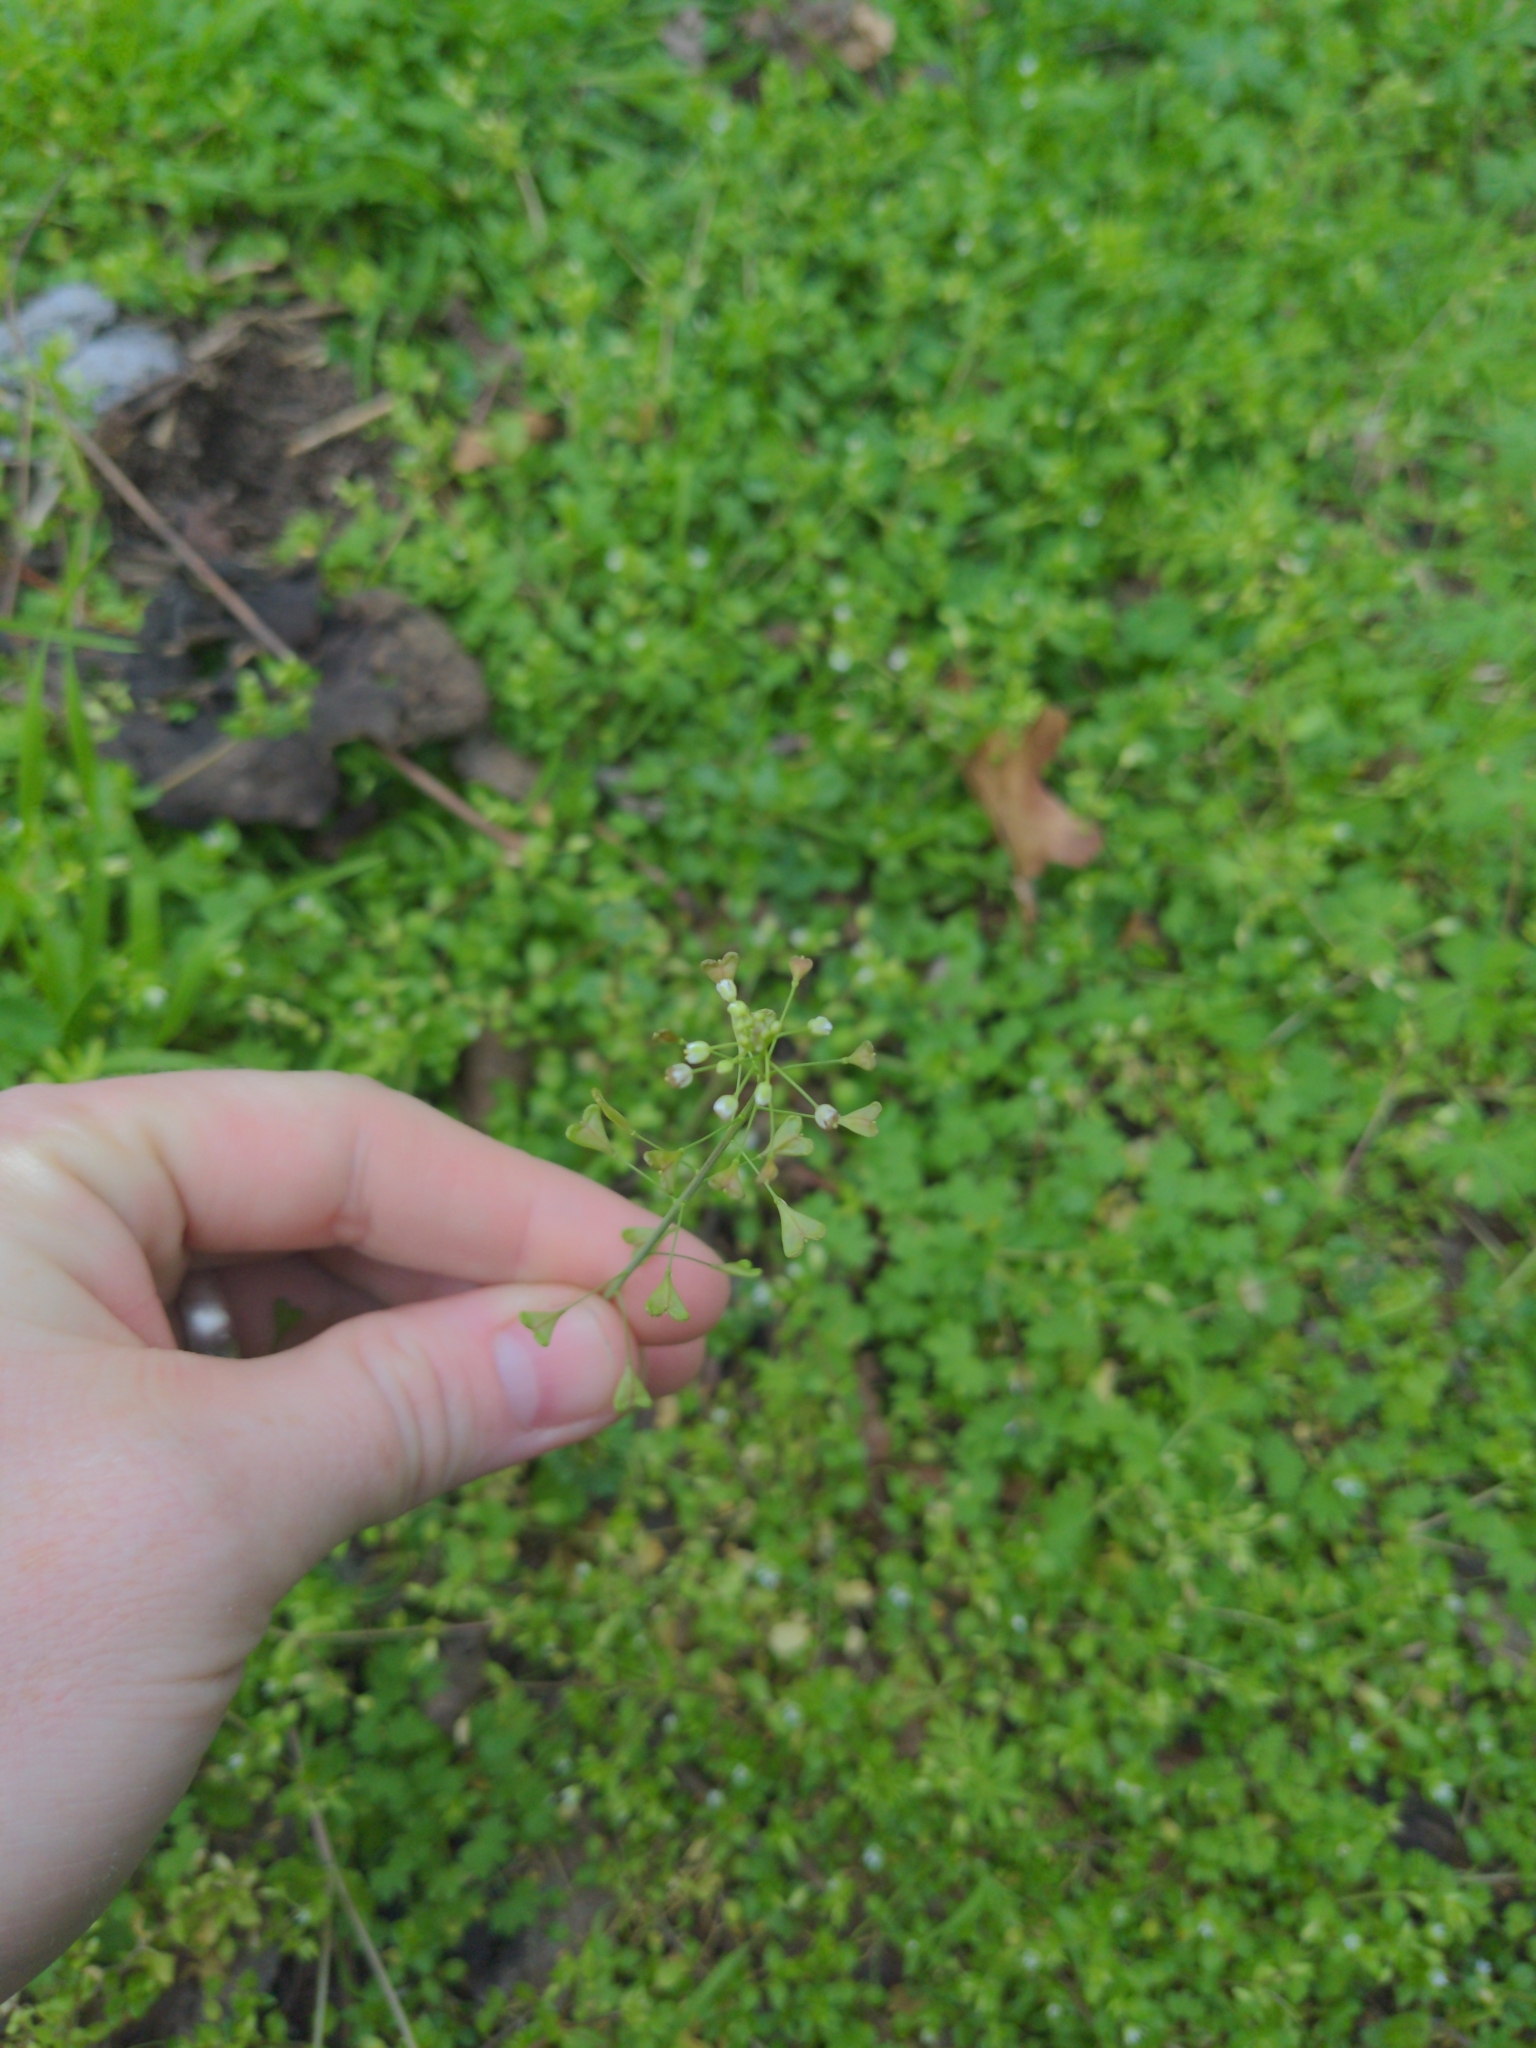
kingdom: Plantae
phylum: Tracheophyta
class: Magnoliopsida
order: Brassicales
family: Brassicaceae
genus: Capsella
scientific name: Capsella bursa-pastoris
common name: Shepherd's purse
